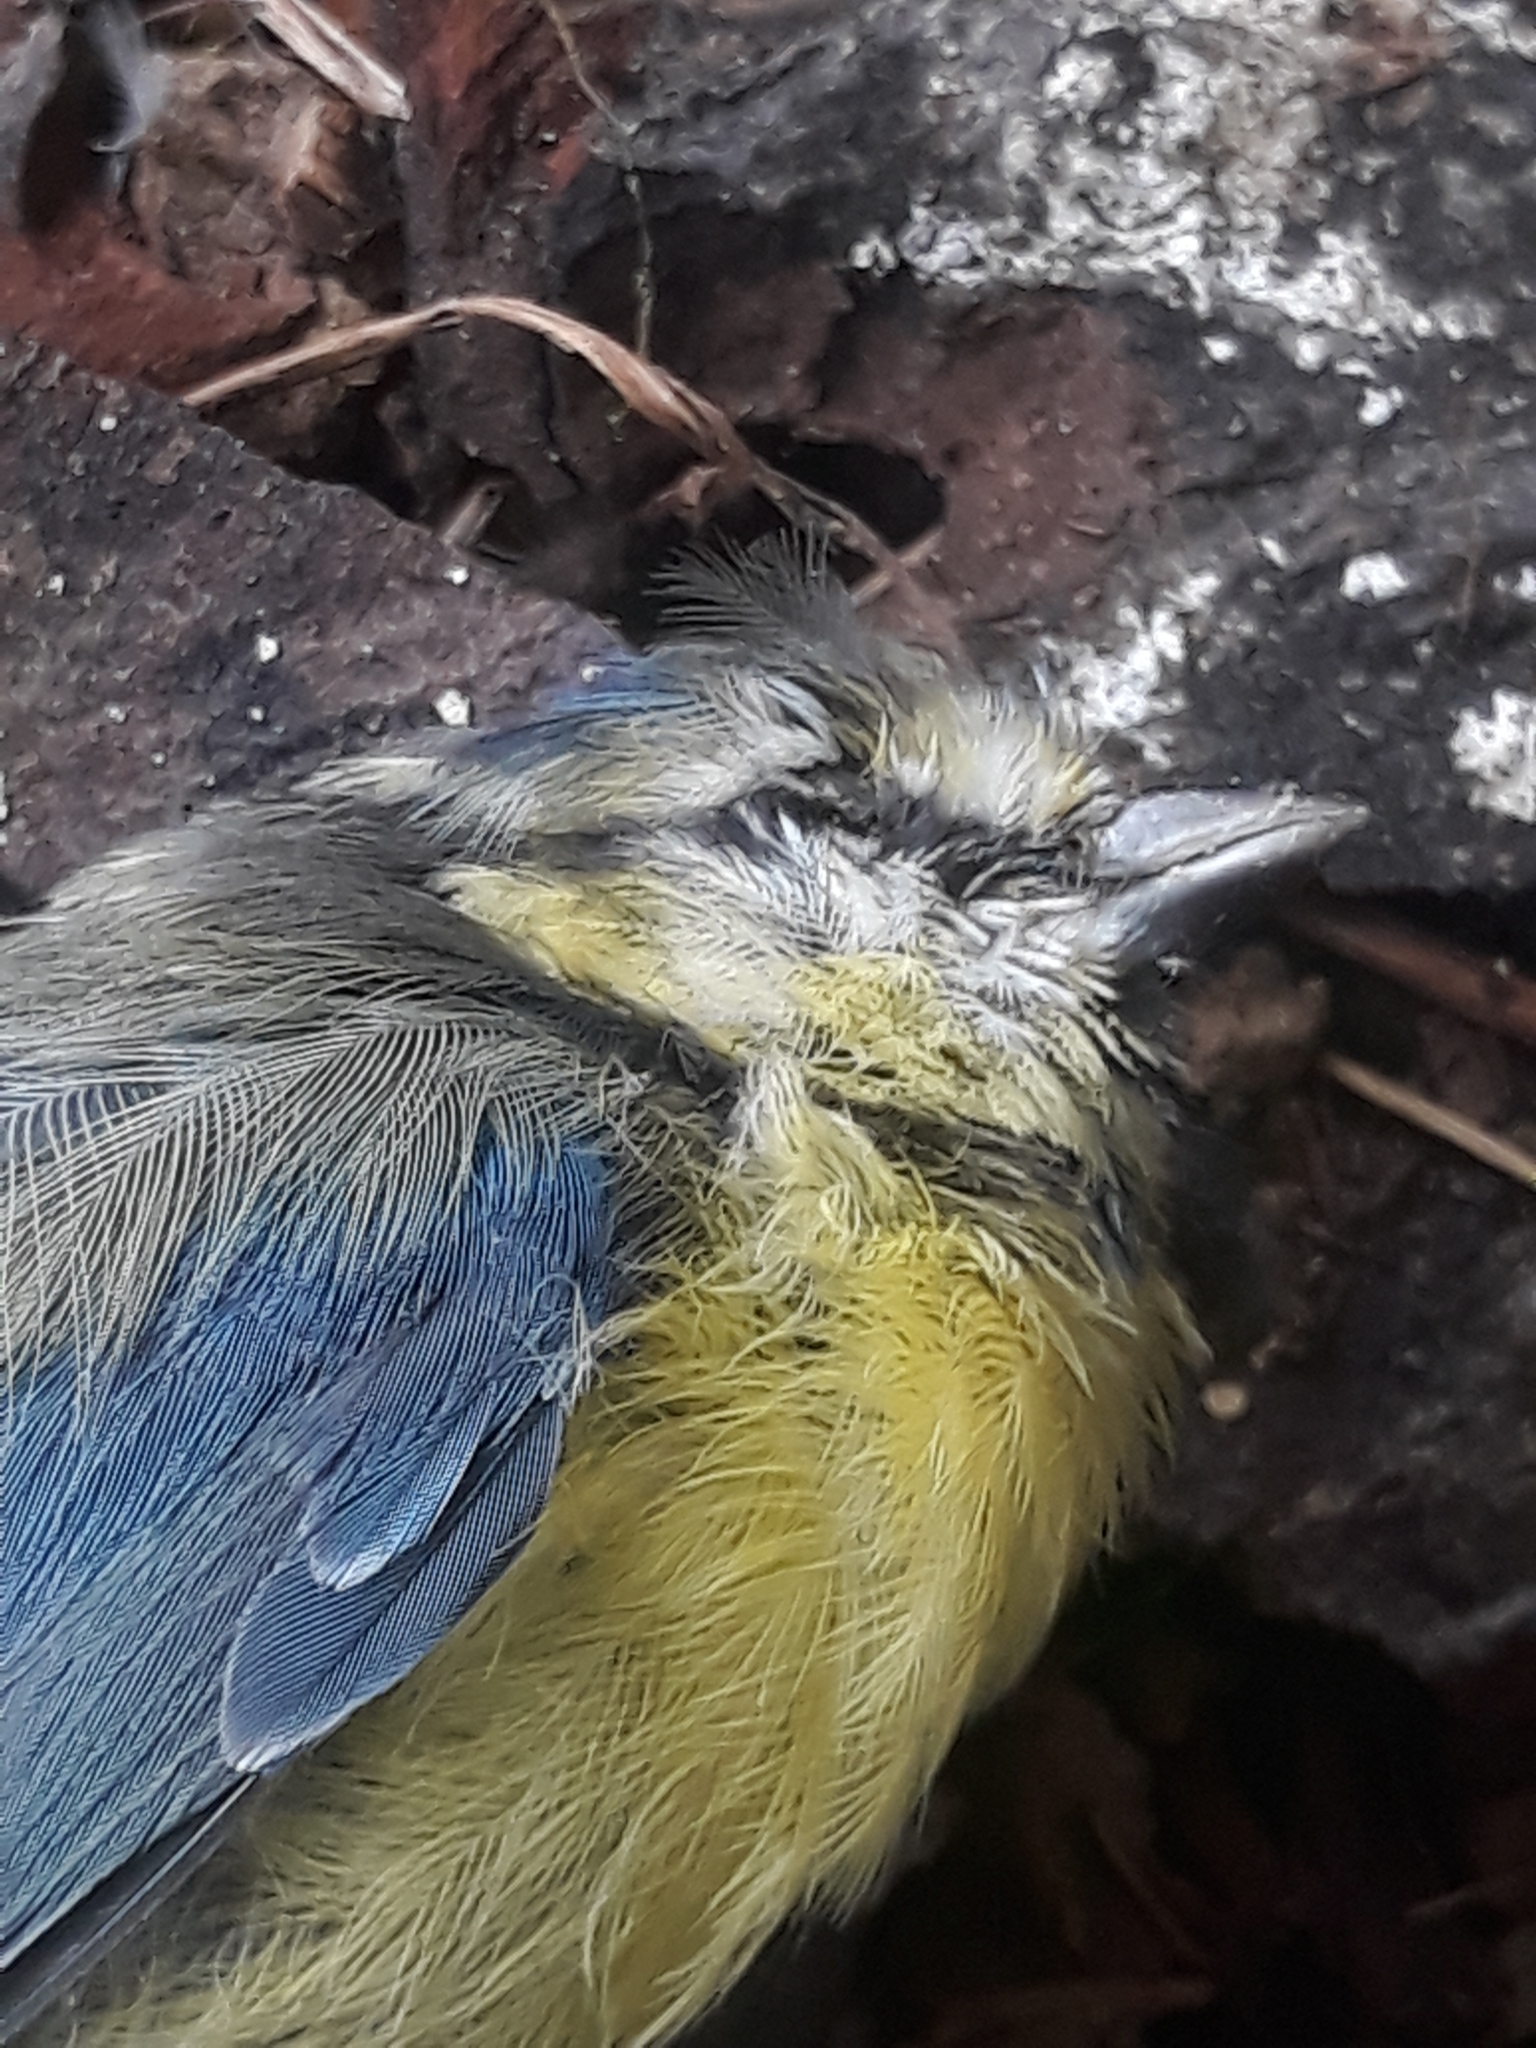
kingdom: Animalia
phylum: Chordata
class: Aves
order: Passeriformes
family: Paridae
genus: Cyanistes
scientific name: Cyanistes caeruleus
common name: Eurasian blue tit
